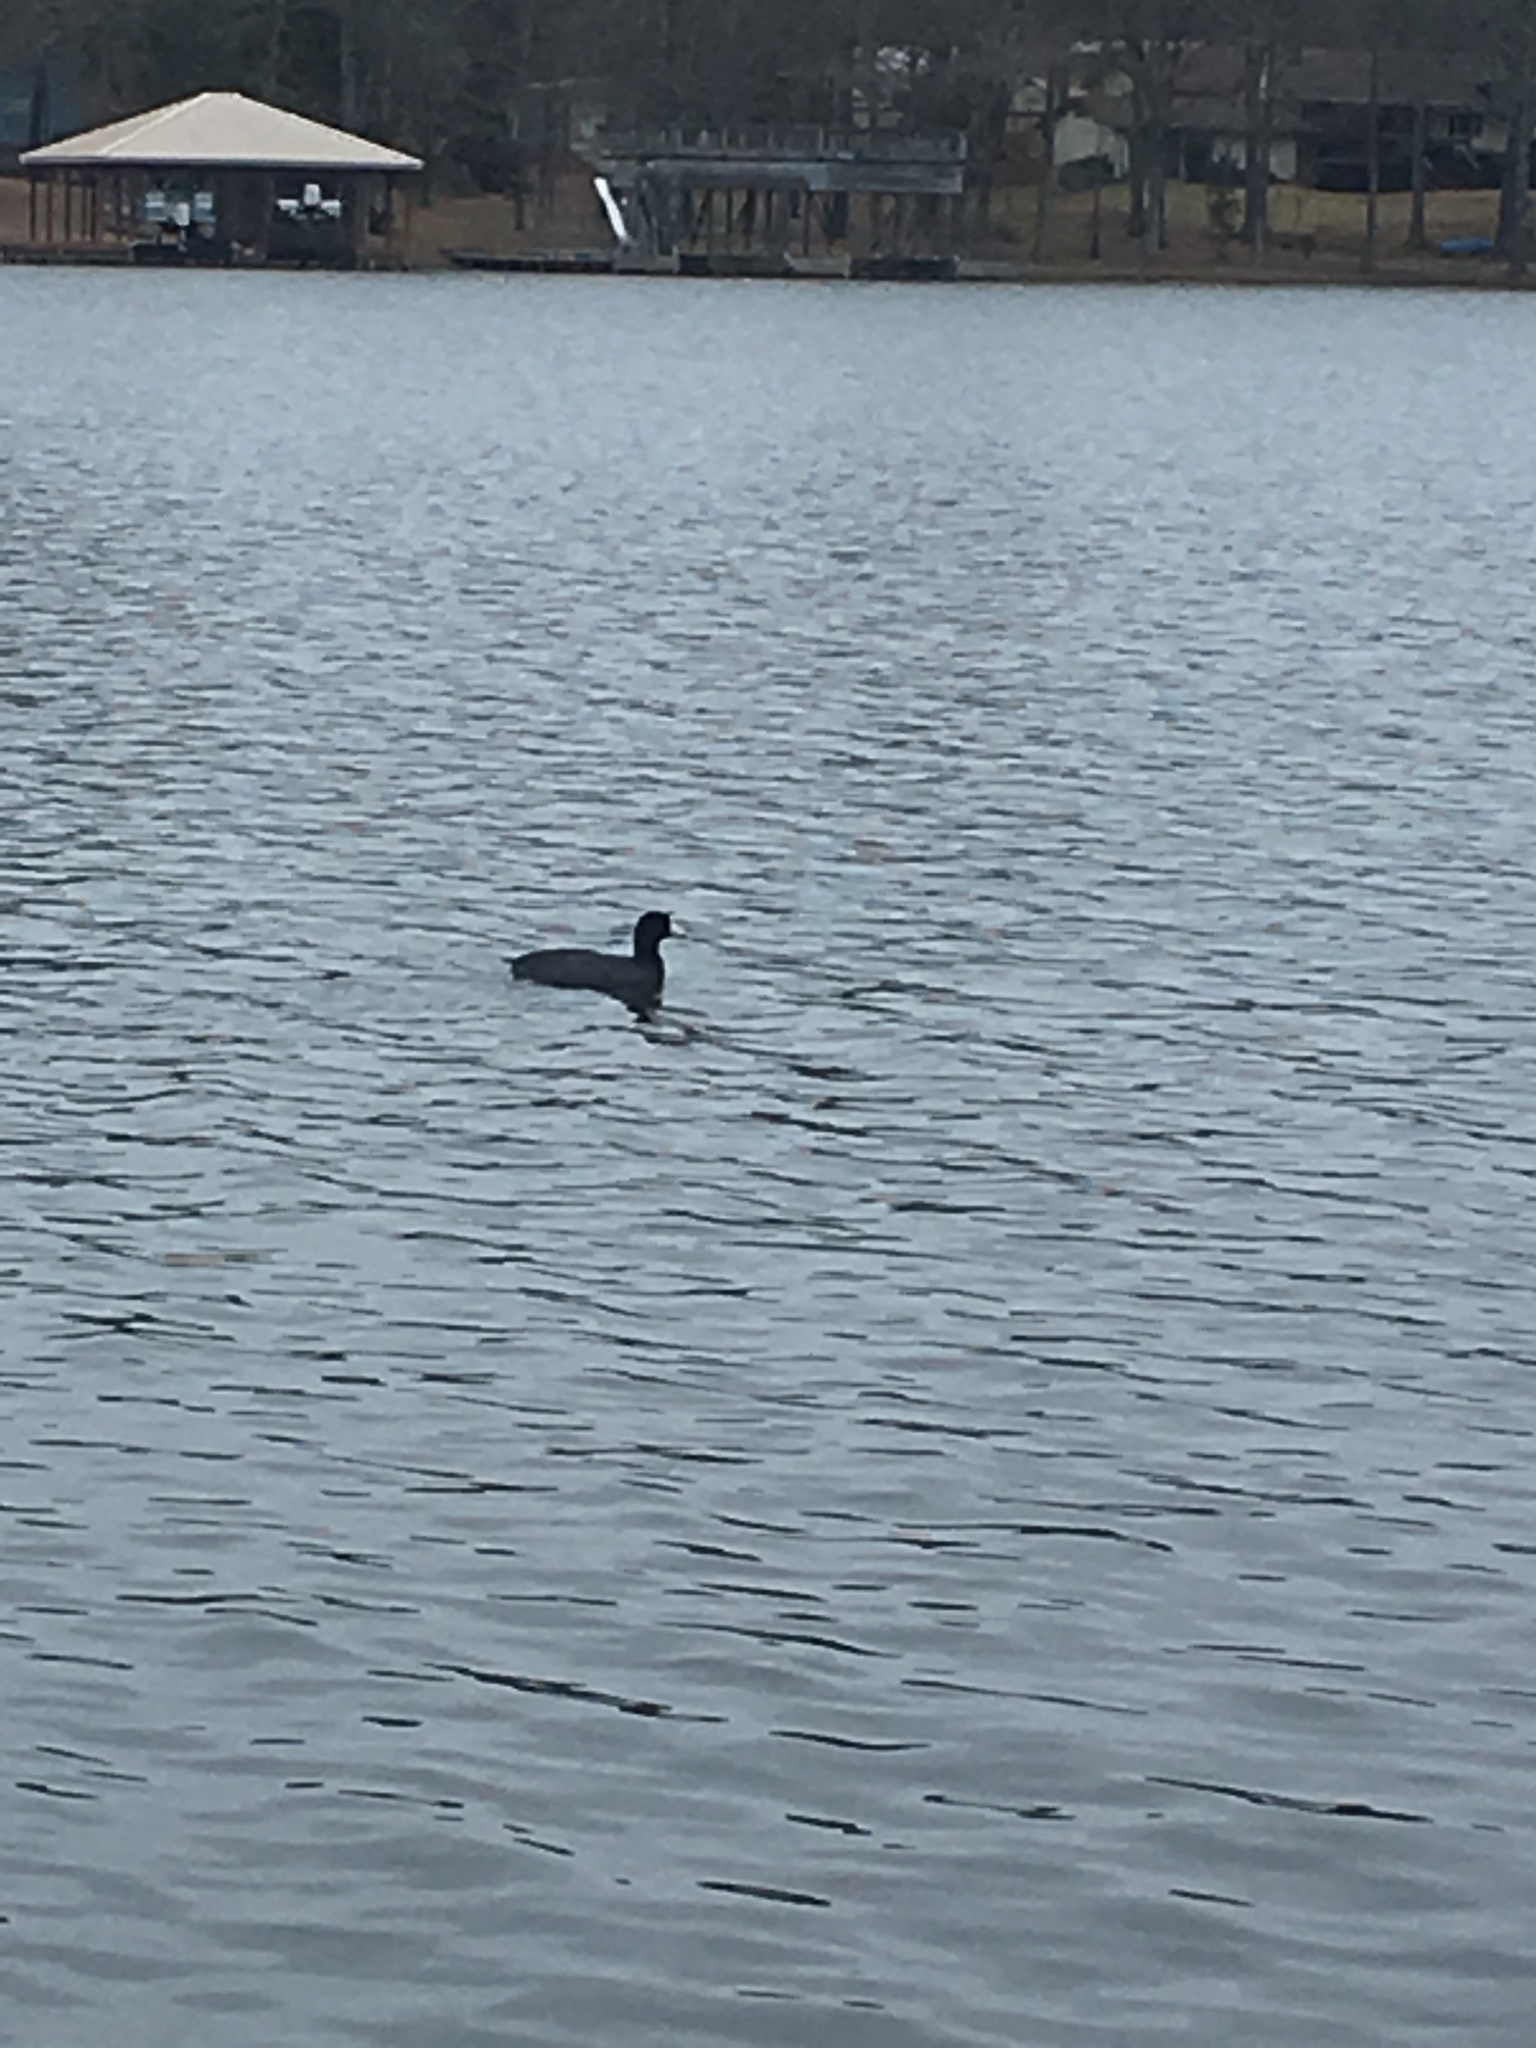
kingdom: Animalia
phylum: Chordata
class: Aves
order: Gruiformes
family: Rallidae
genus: Fulica
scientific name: Fulica americana
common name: American coot
